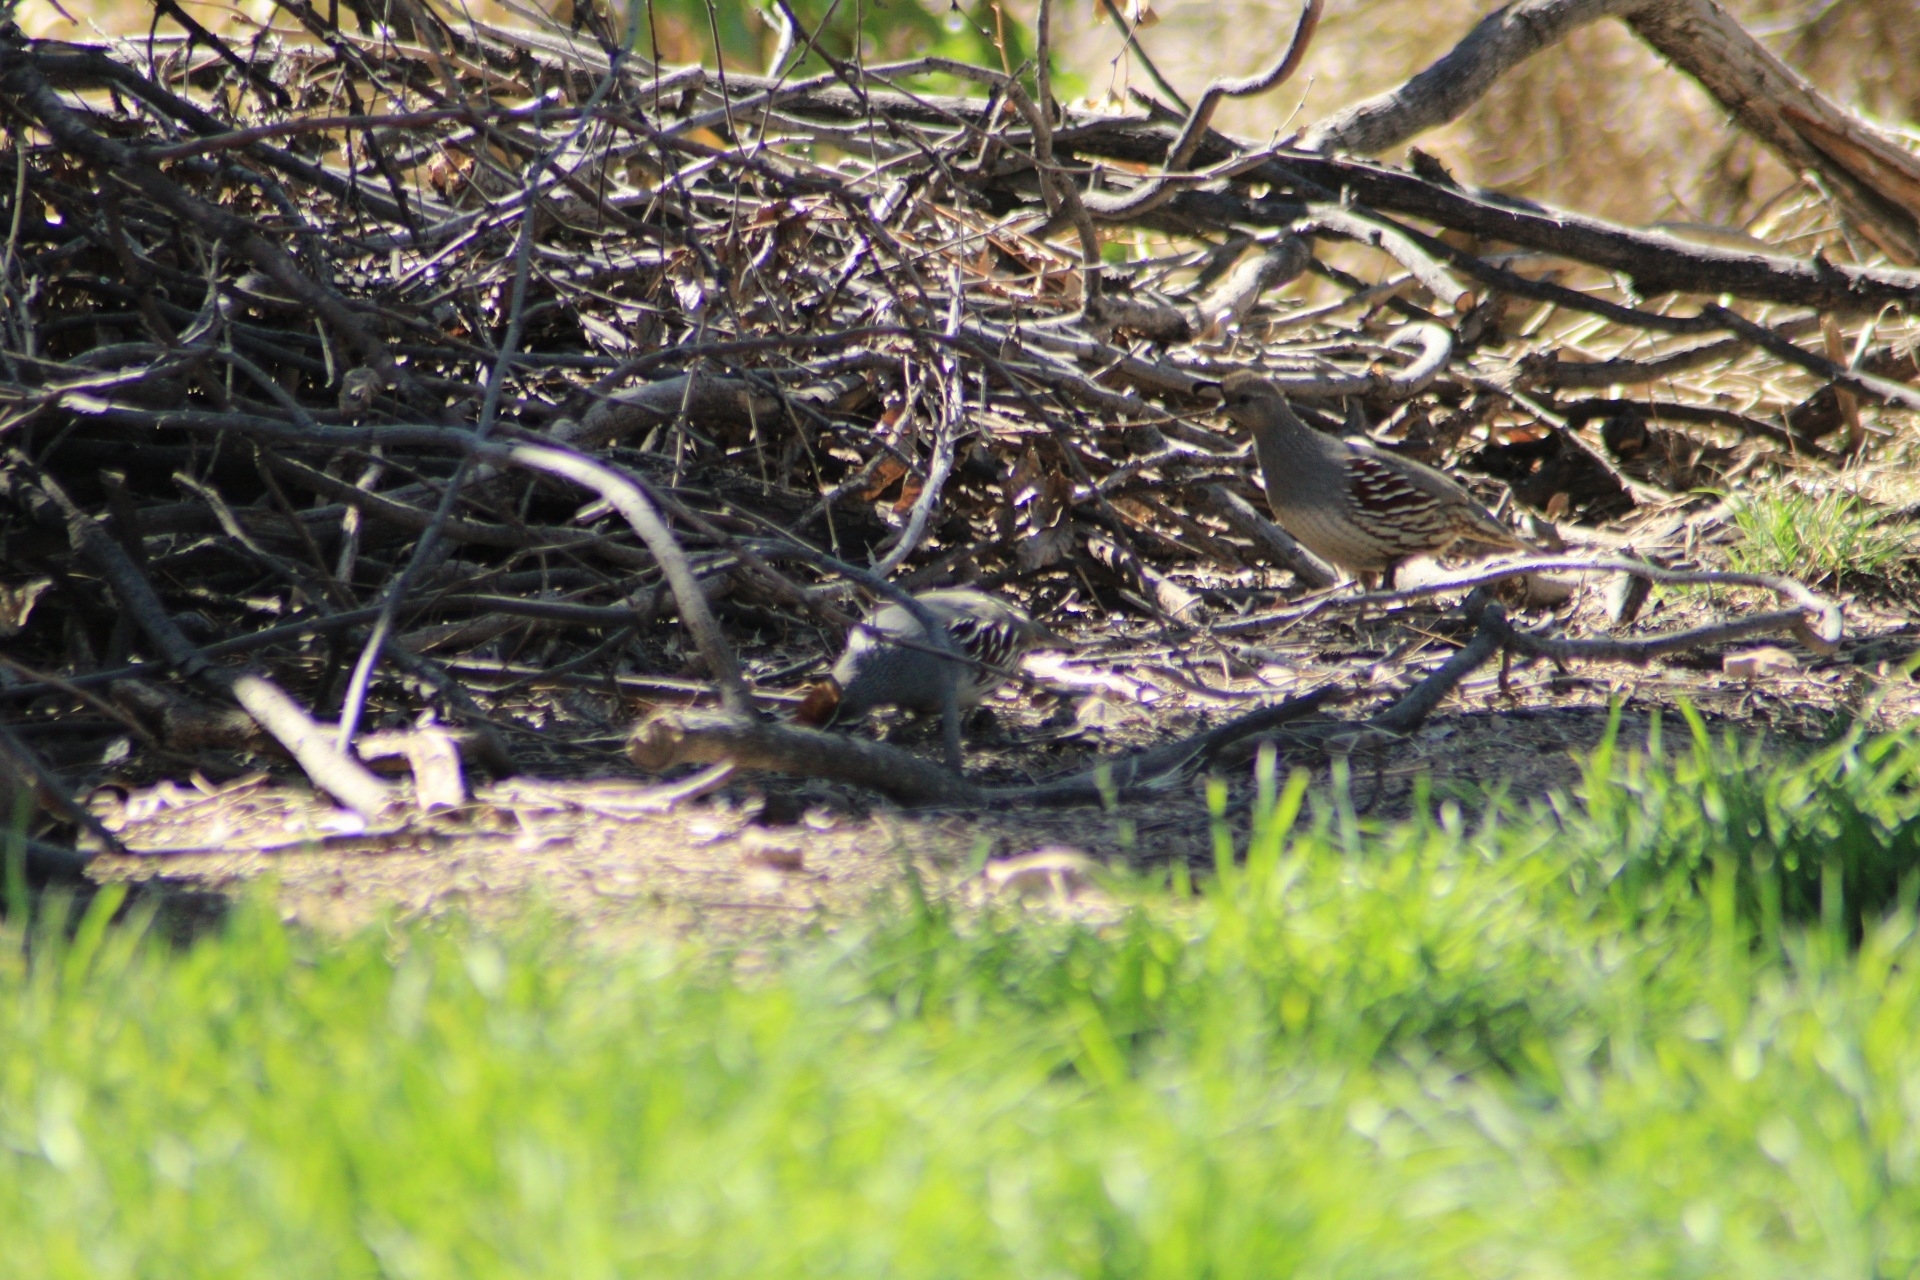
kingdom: Animalia
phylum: Chordata
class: Aves
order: Galliformes
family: Odontophoridae
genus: Callipepla
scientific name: Callipepla gambelii
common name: Gambel's quail
